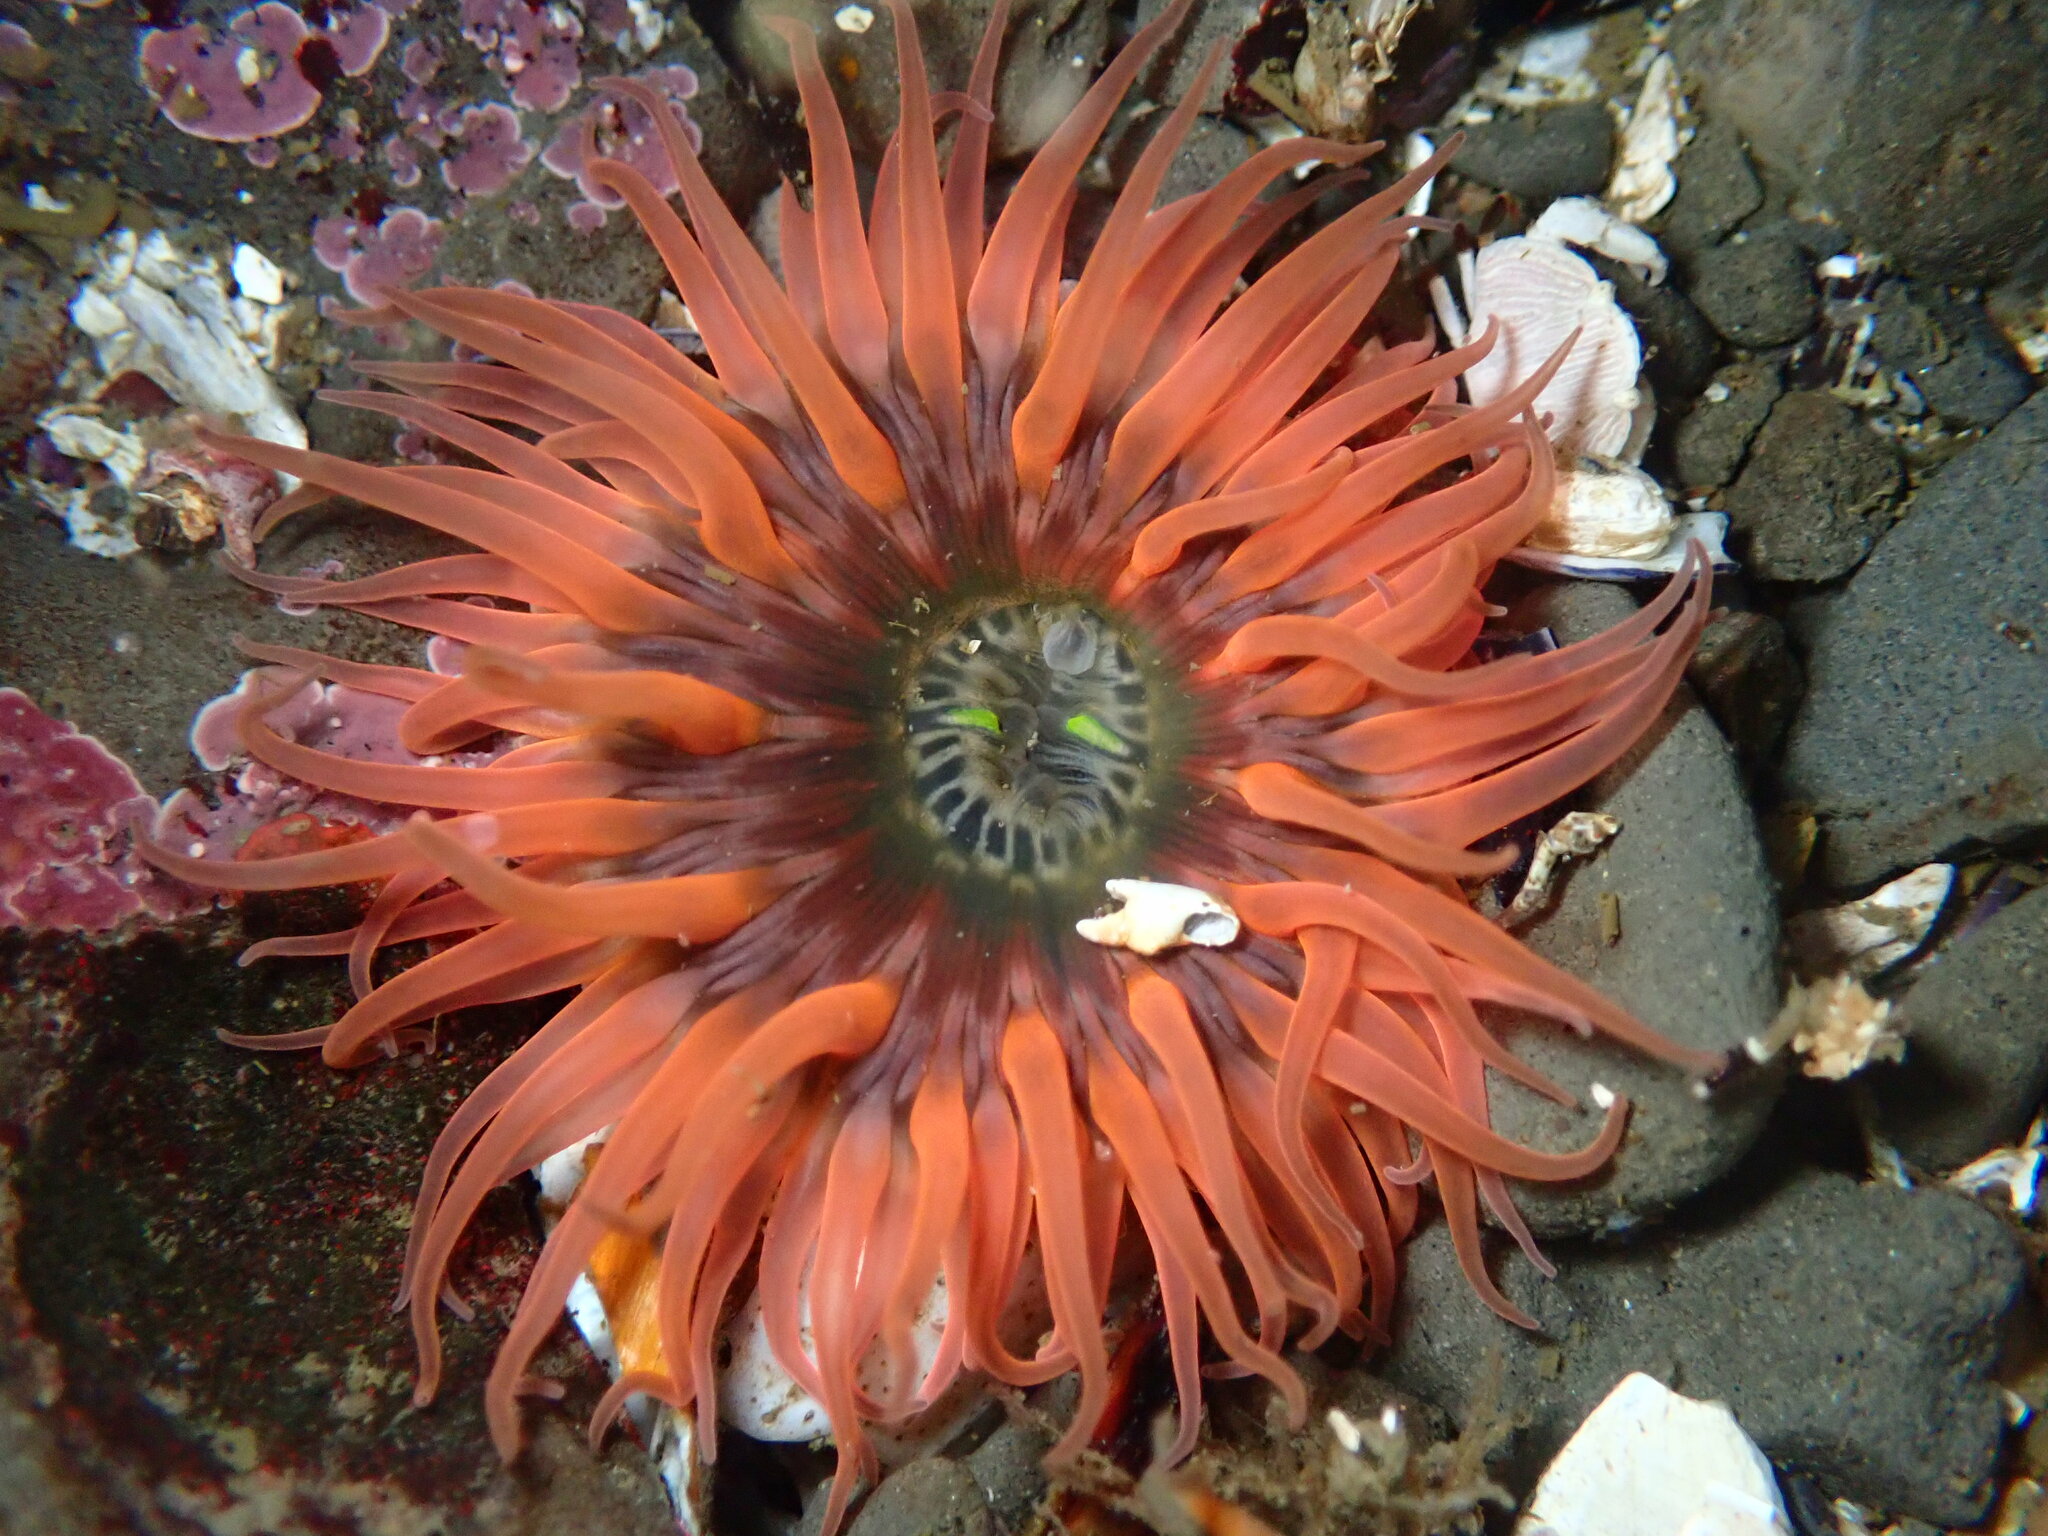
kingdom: Animalia
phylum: Cnidaria
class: Anthozoa
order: Actiniaria
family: Actiniidae
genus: Anthopleura
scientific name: Anthopleura artemisia
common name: Buried sea anemone
